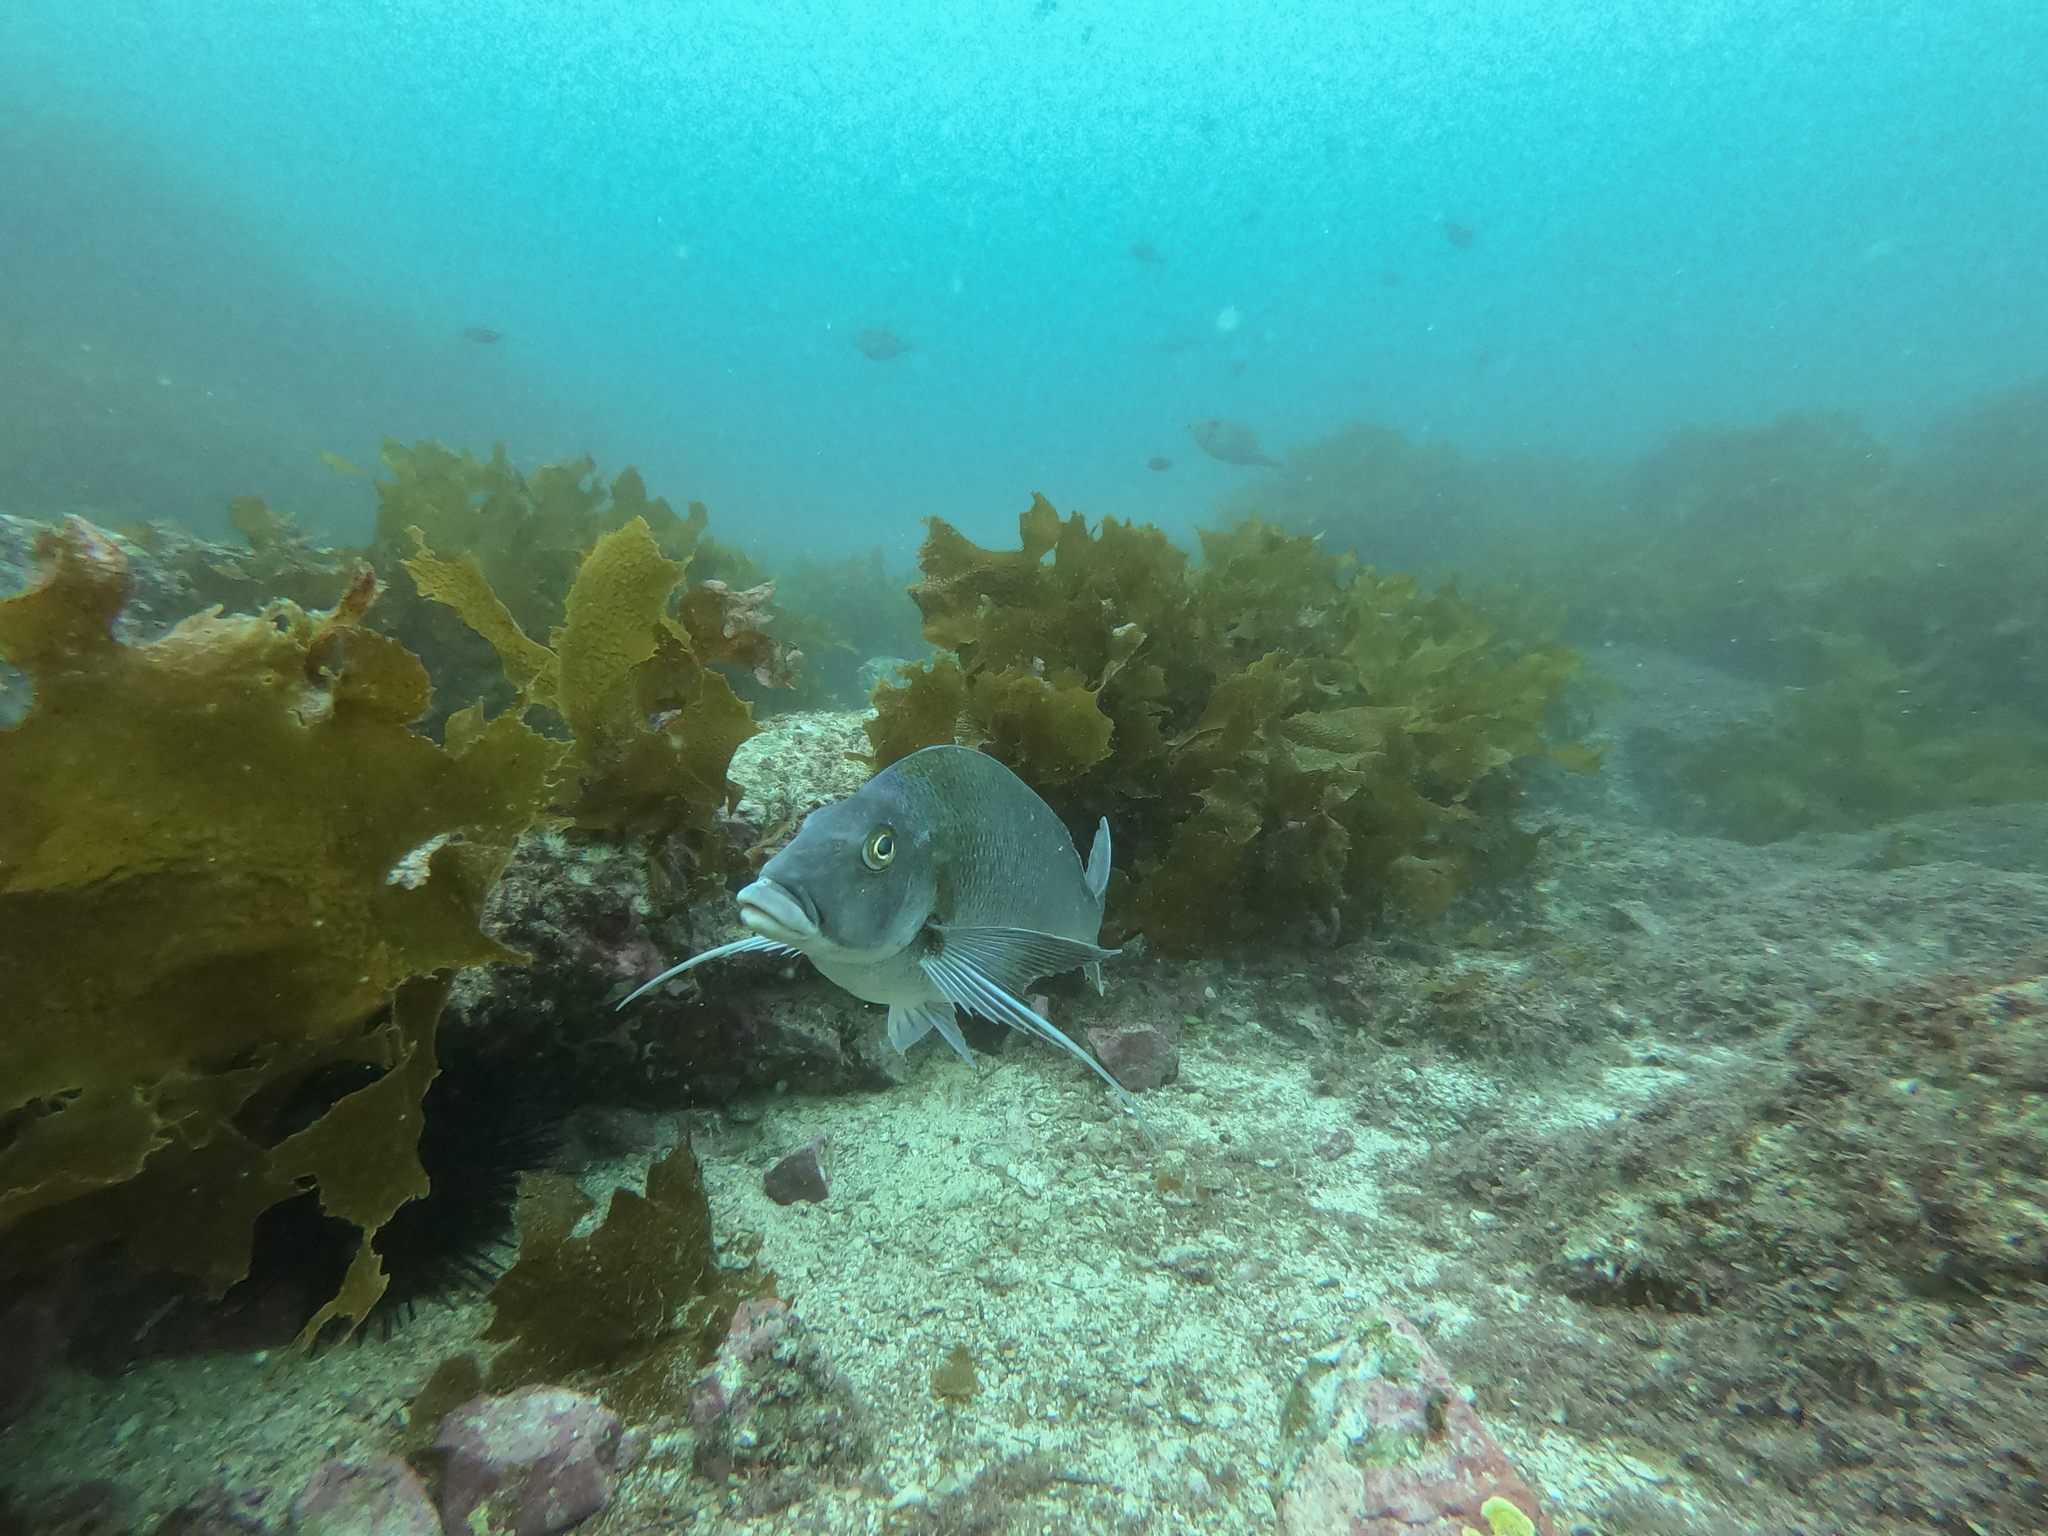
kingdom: Animalia
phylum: Chordata
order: Perciformes
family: Cheilodactylidae
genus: Nemadactylus
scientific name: Nemadactylus douglasii
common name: Porae
